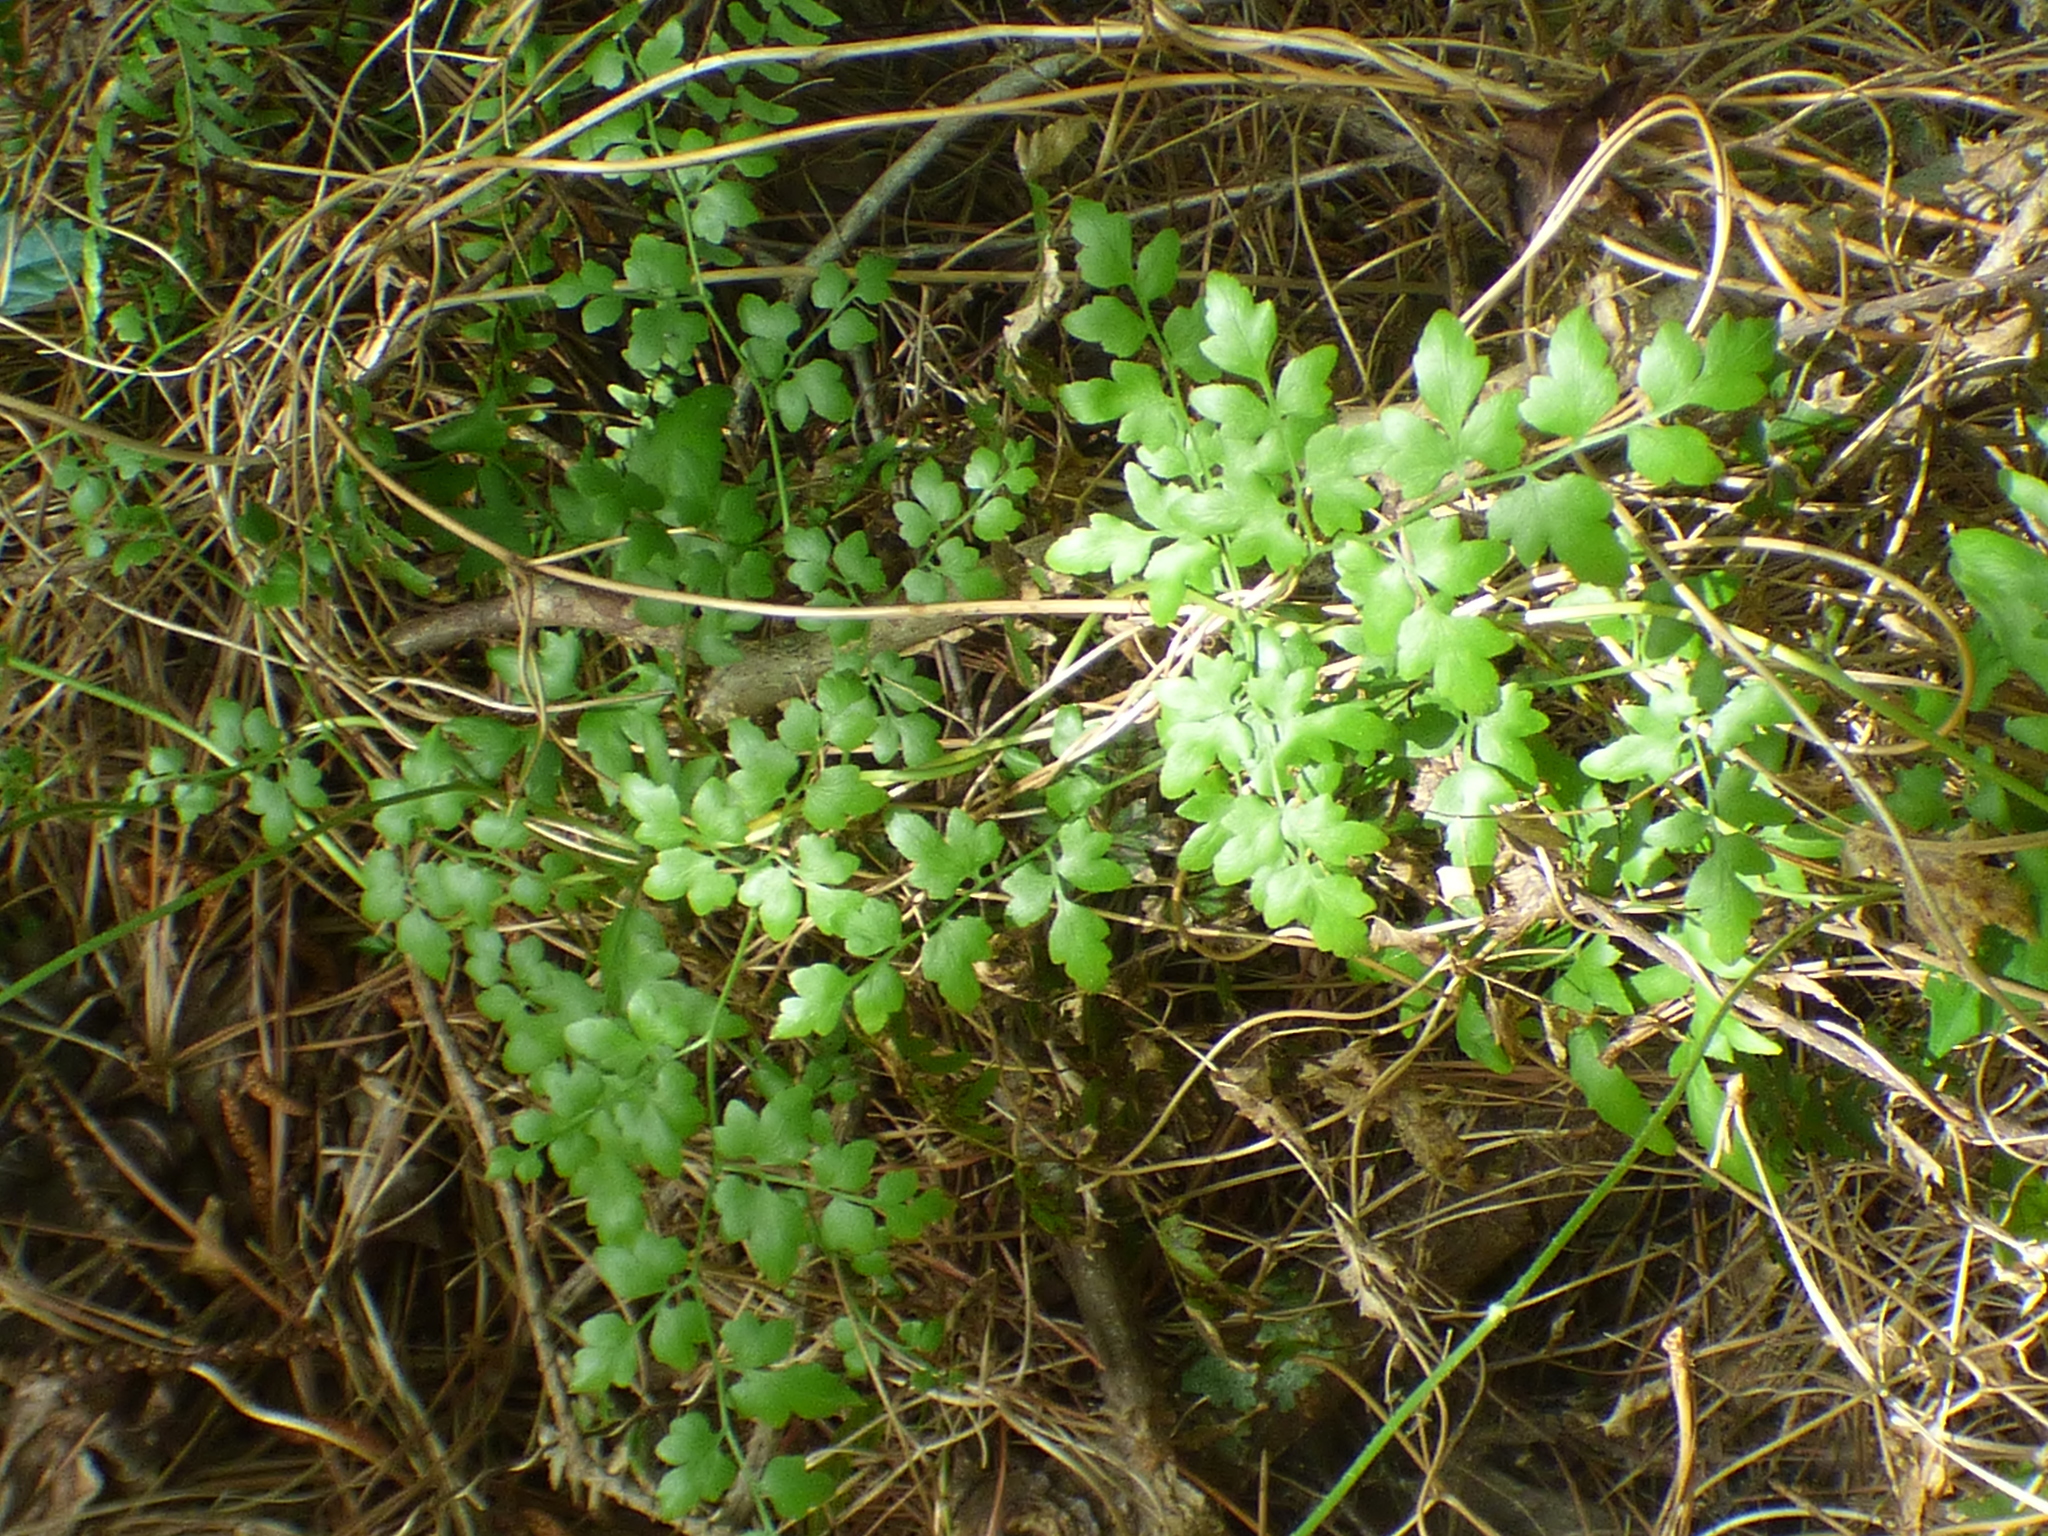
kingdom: Plantae
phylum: Tracheophyta
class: Polypodiopsida
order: Schizaeales
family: Lygodiaceae
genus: Lygodium
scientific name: Lygodium japonicum
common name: Japanese climbing fern
